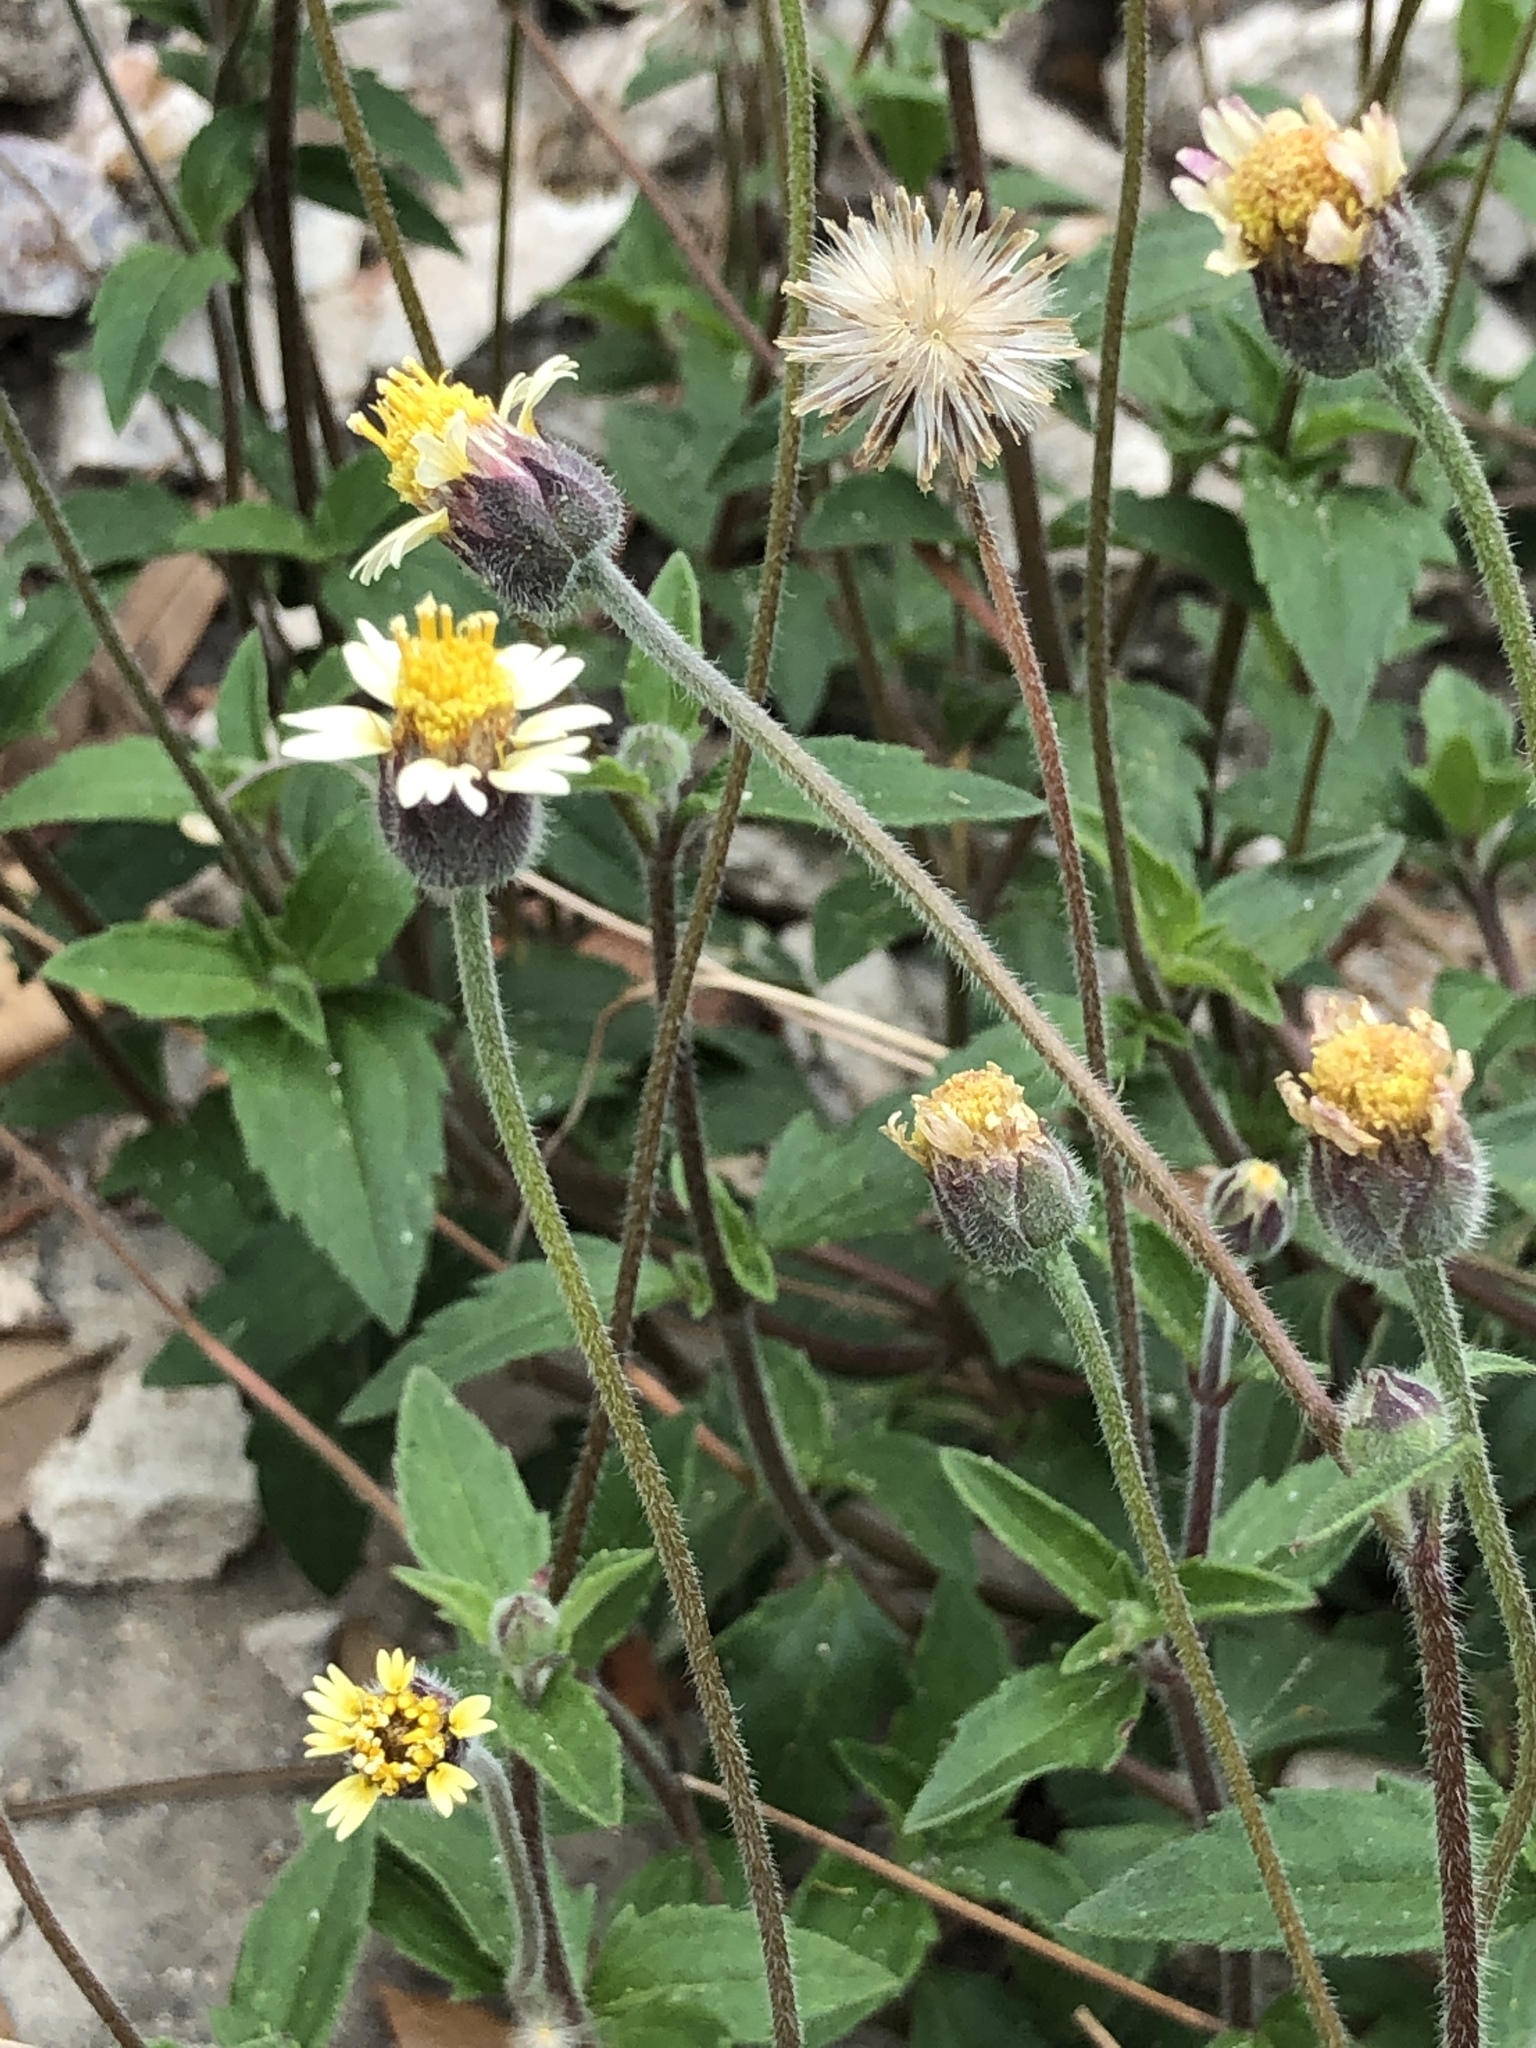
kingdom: Plantae
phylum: Tracheophyta
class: Magnoliopsida
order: Asterales
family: Asteraceae
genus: Tridax
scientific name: Tridax procumbens
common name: Coatbuttons
